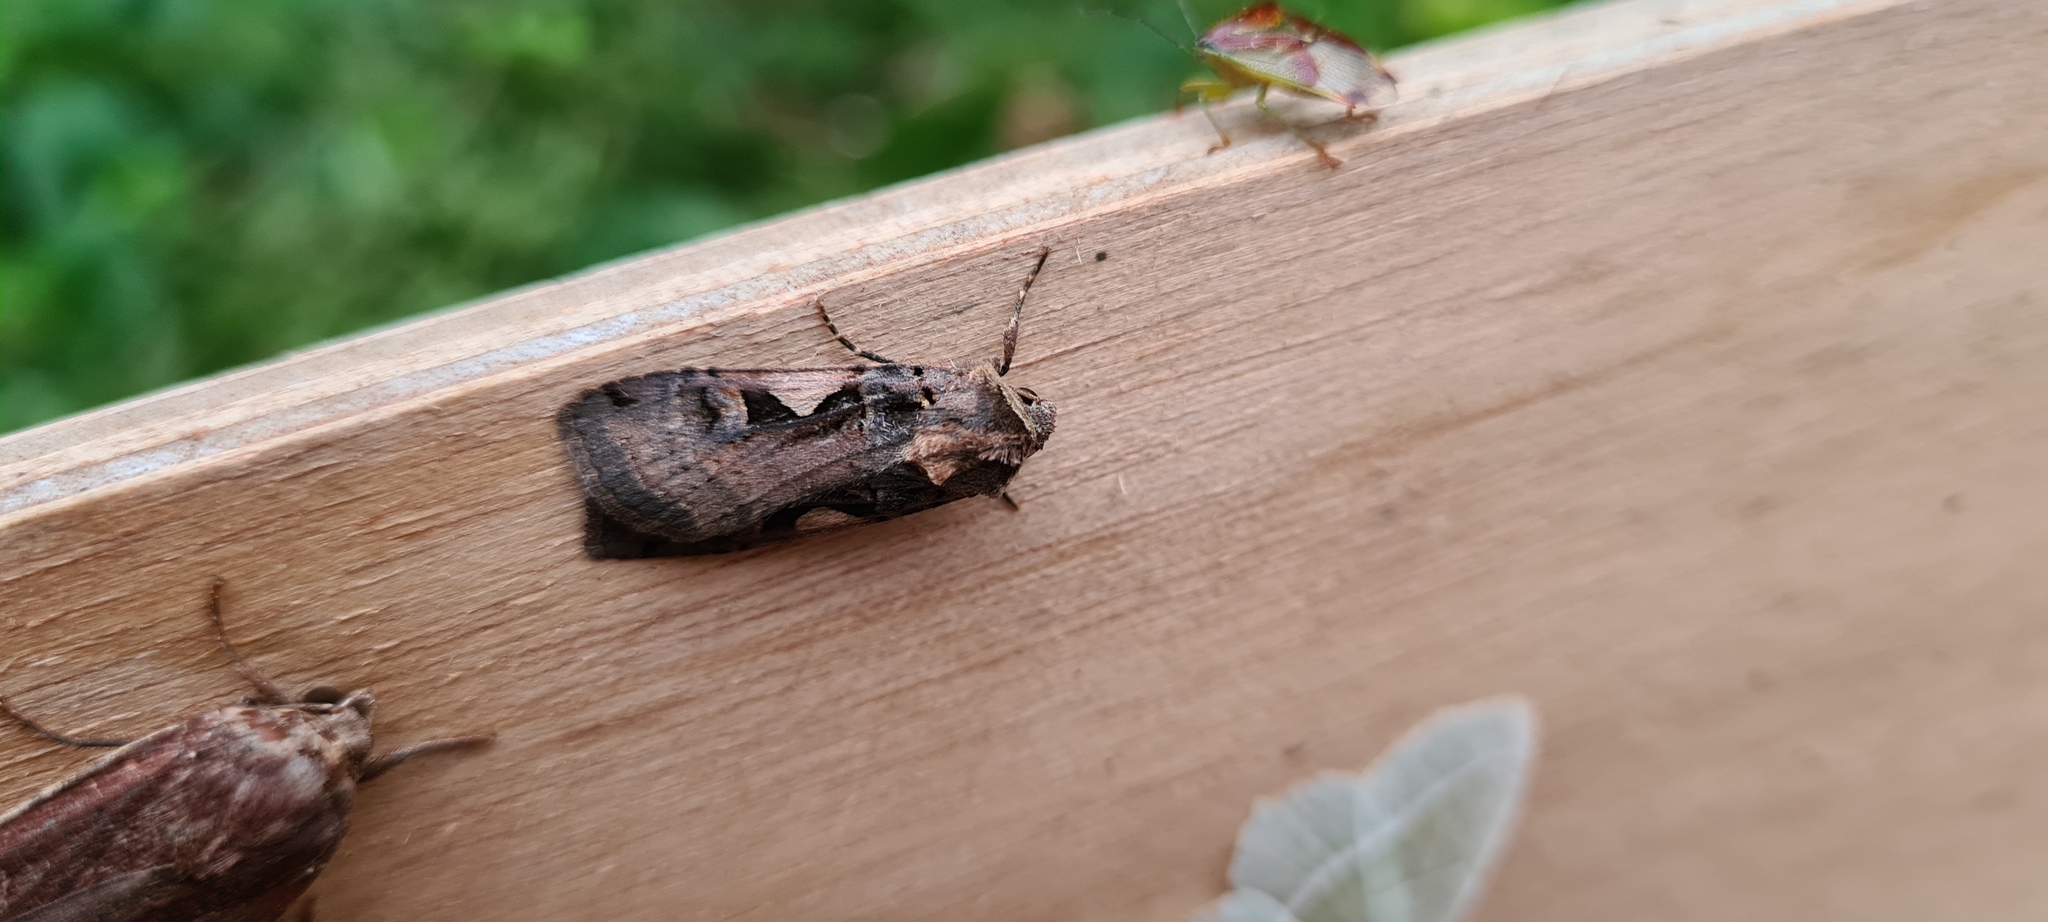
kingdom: Animalia
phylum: Arthropoda
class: Insecta
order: Lepidoptera
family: Noctuidae
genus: Xestia
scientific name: Xestia c-nigrum
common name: Setaceous hebrew character
